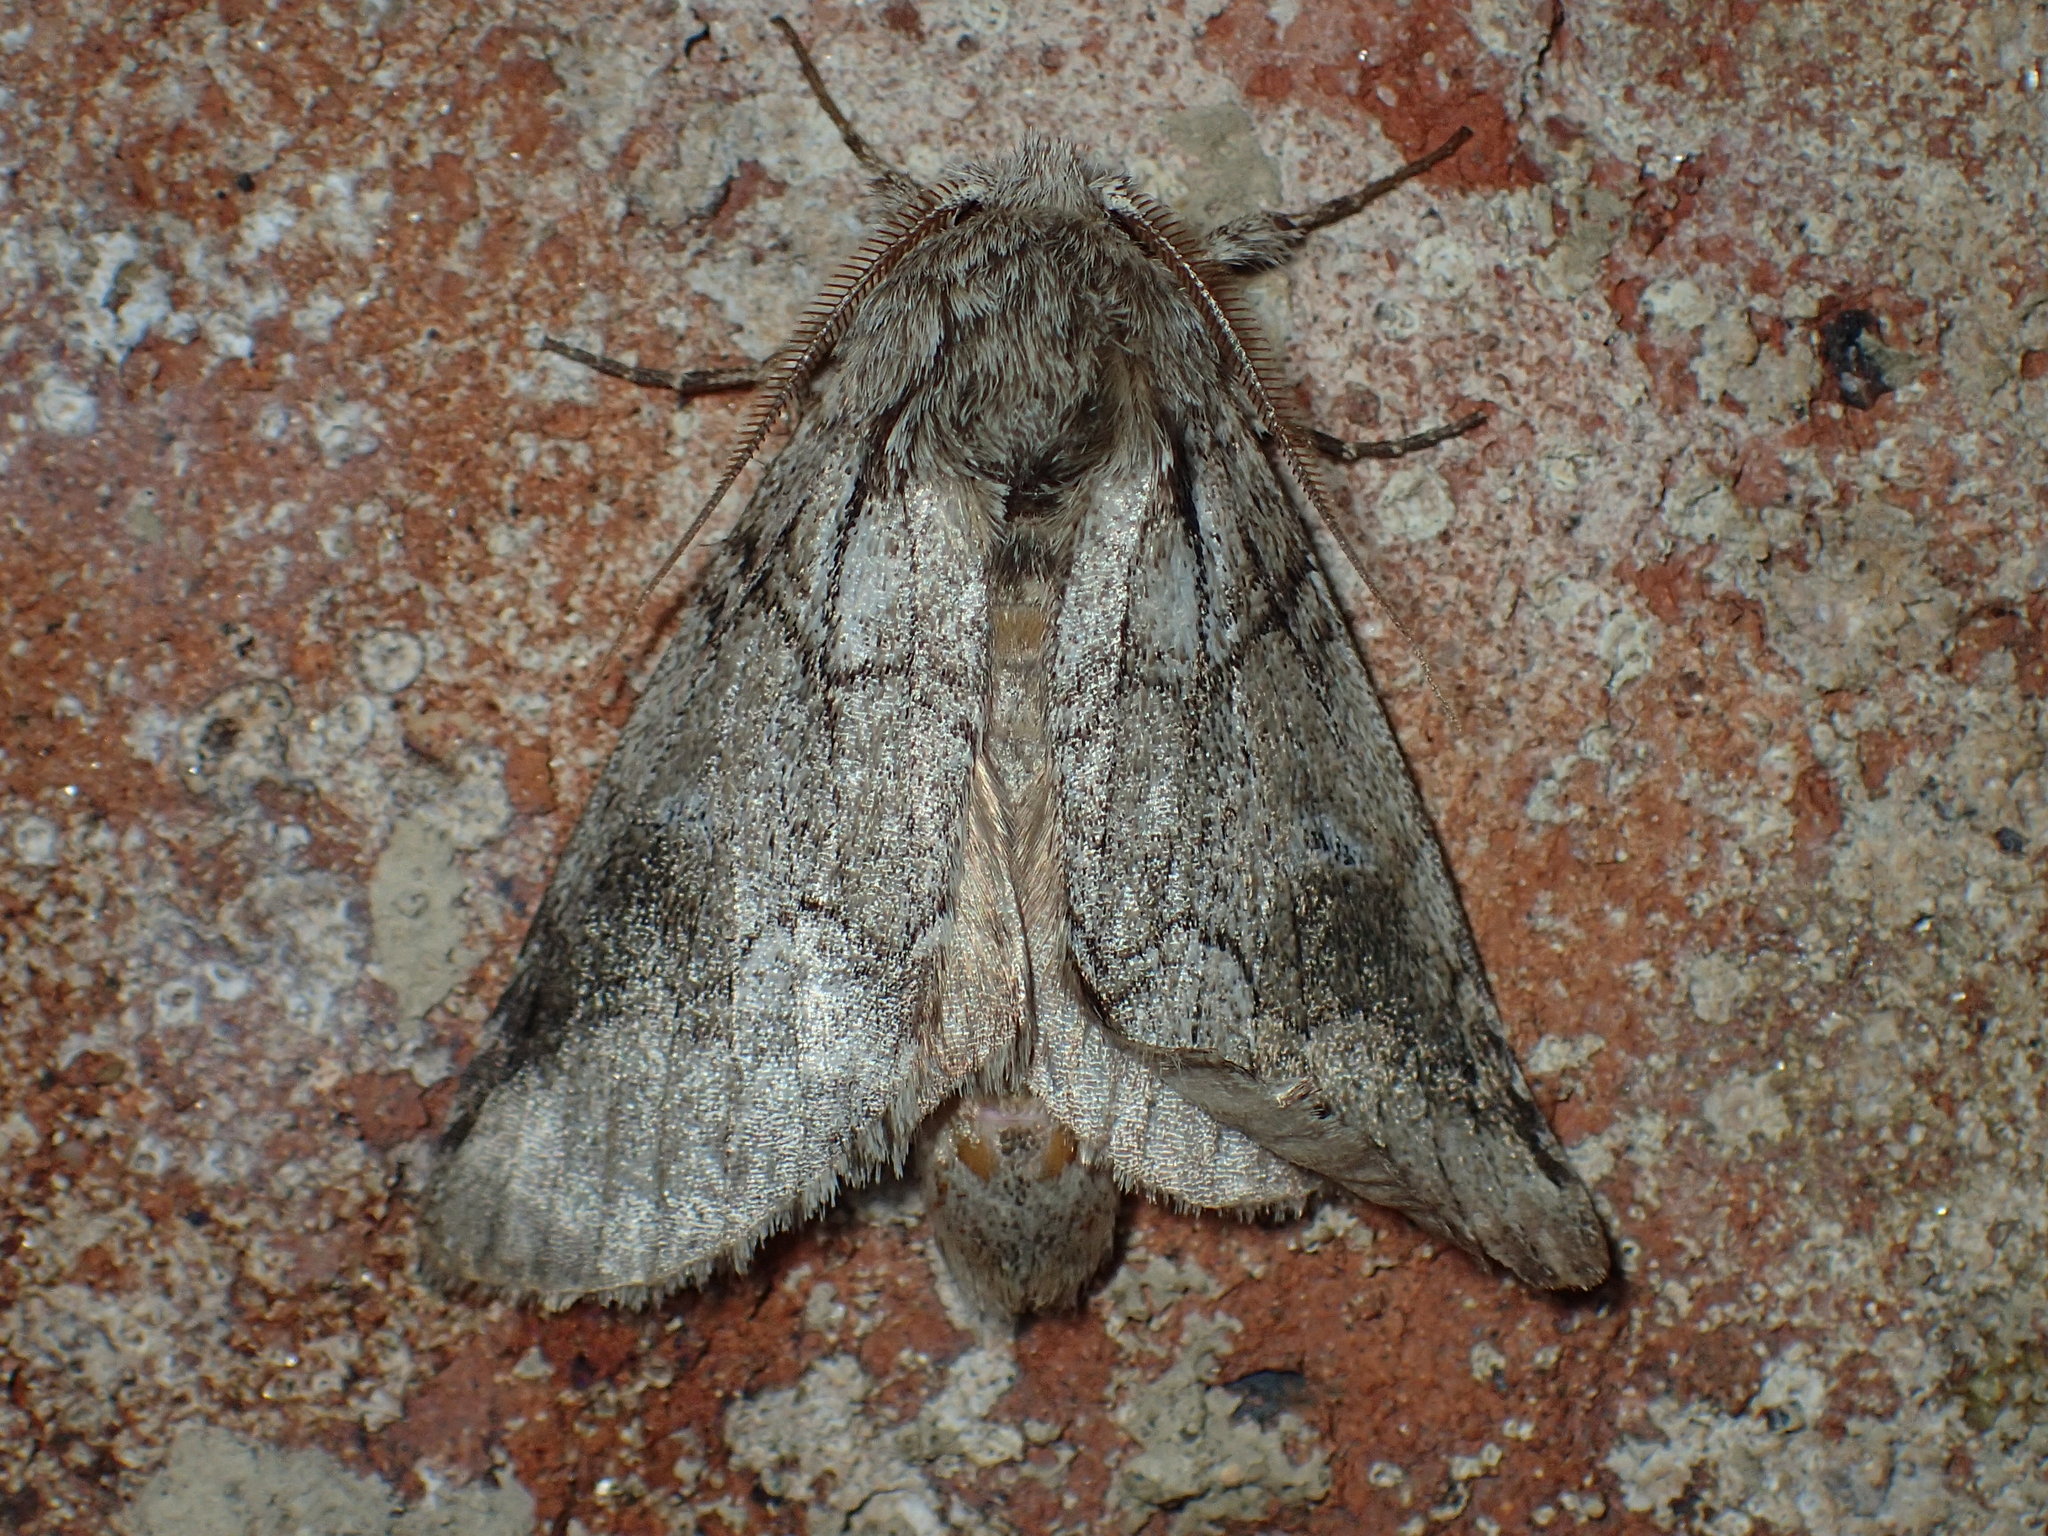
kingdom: Animalia
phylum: Arthropoda
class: Insecta
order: Lepidoptera
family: Notodontidae
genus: Lochmaeus
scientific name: Lochmaeus bilineata
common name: Double-lined prominent
